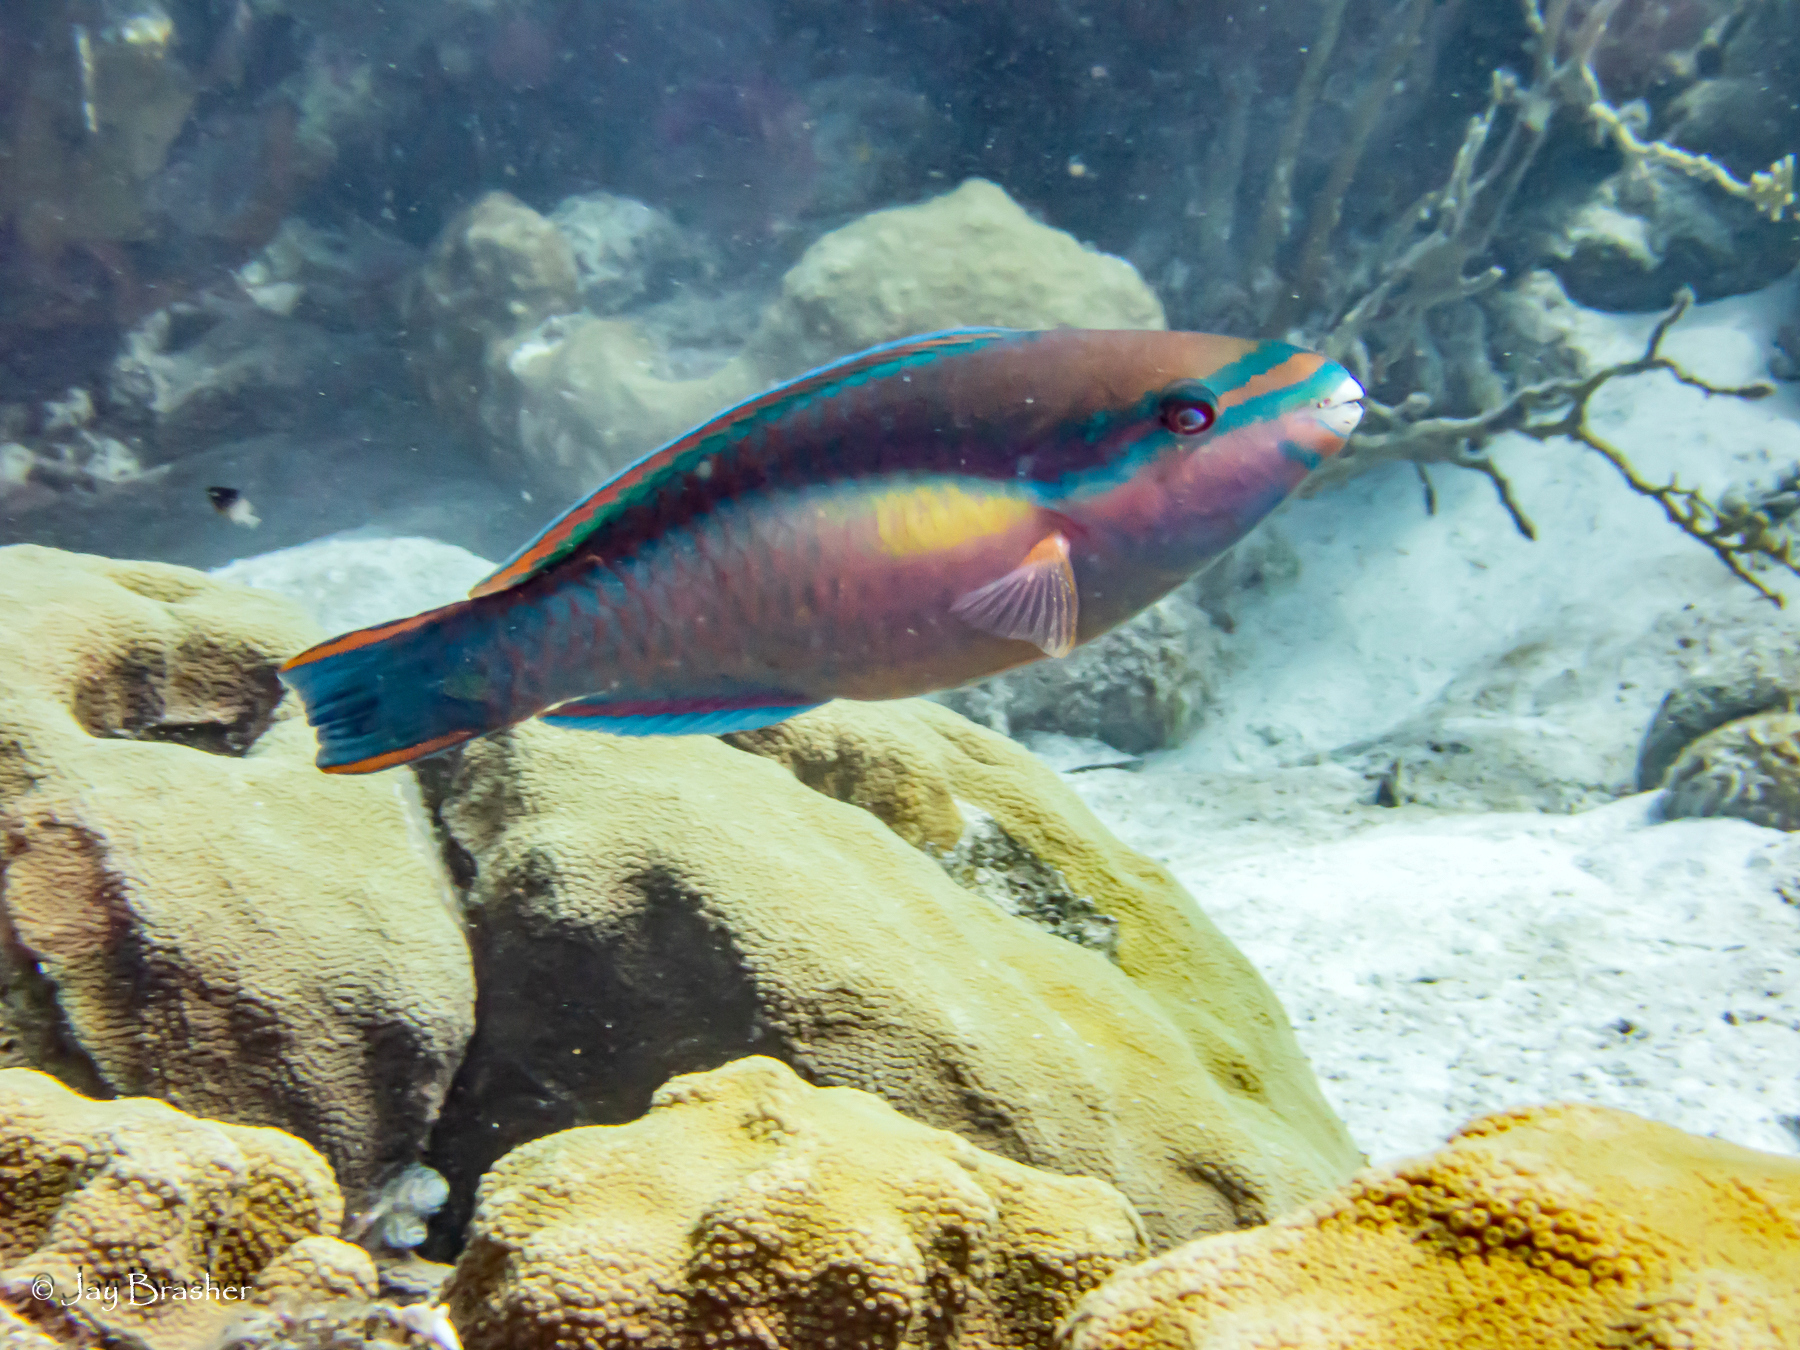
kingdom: Animalia
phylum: Chordata
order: Perciformes
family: Scaridae
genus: Scarus
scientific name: Scarus taeniopterus
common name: Princess parrotfish
